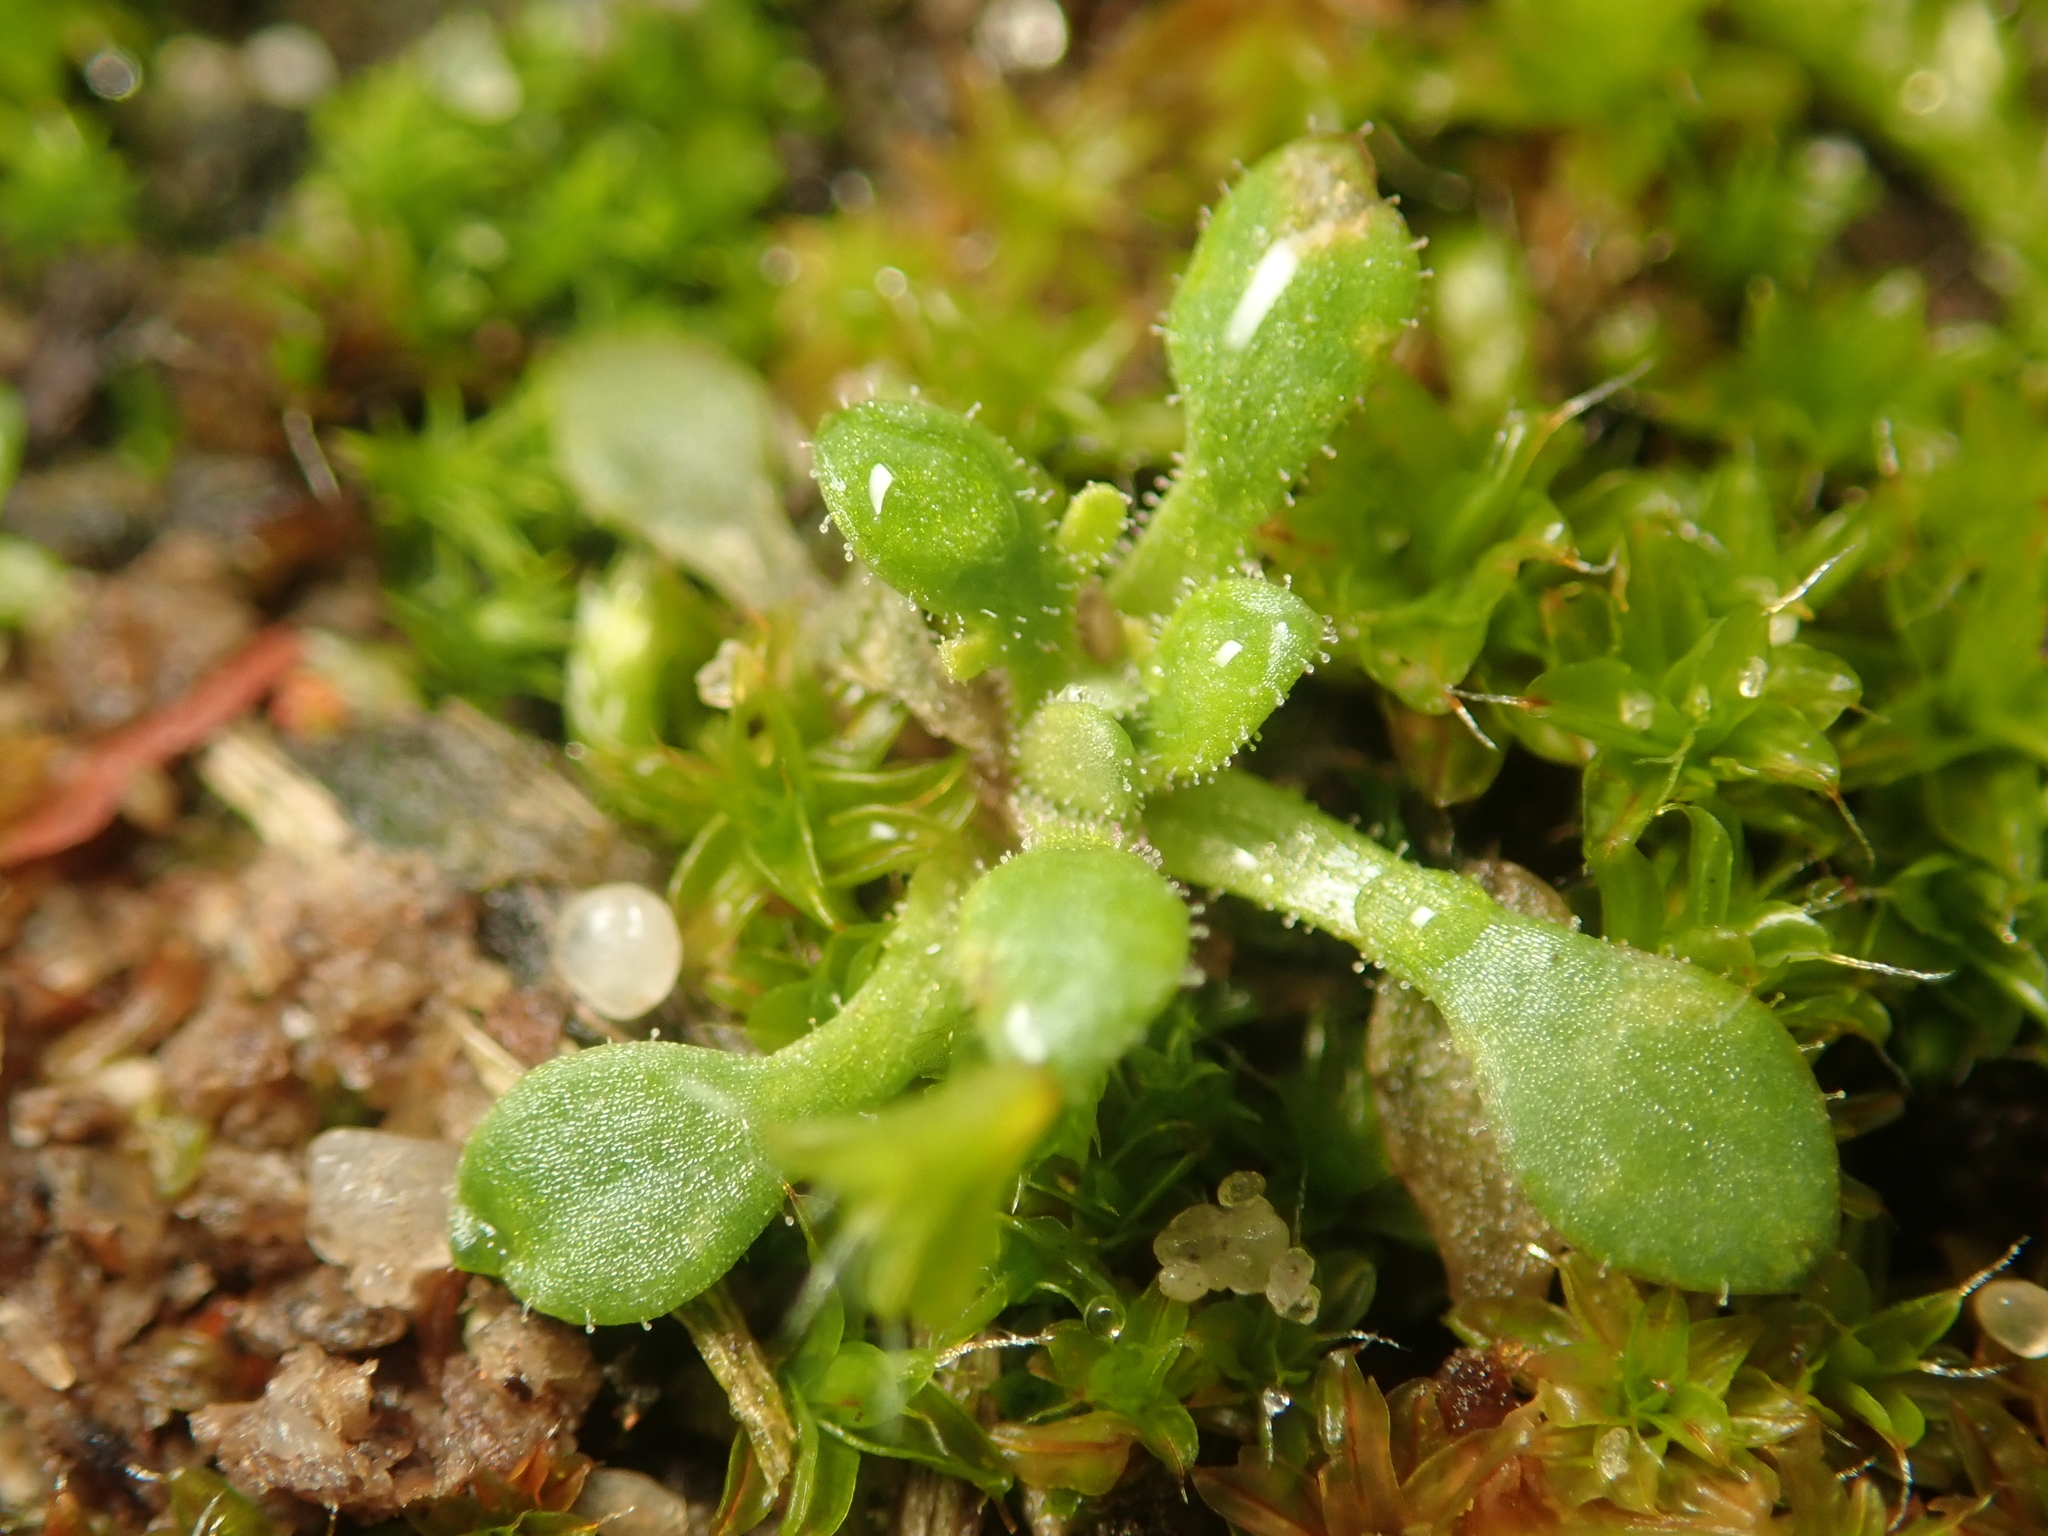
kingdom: Plantae
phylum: Tracheophyta
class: Magnoliopsida
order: Saxifragales
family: Saxifragaceae
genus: Saxifraga
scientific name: Saxifraga tridactylites
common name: Rue-leaved saxifrage
